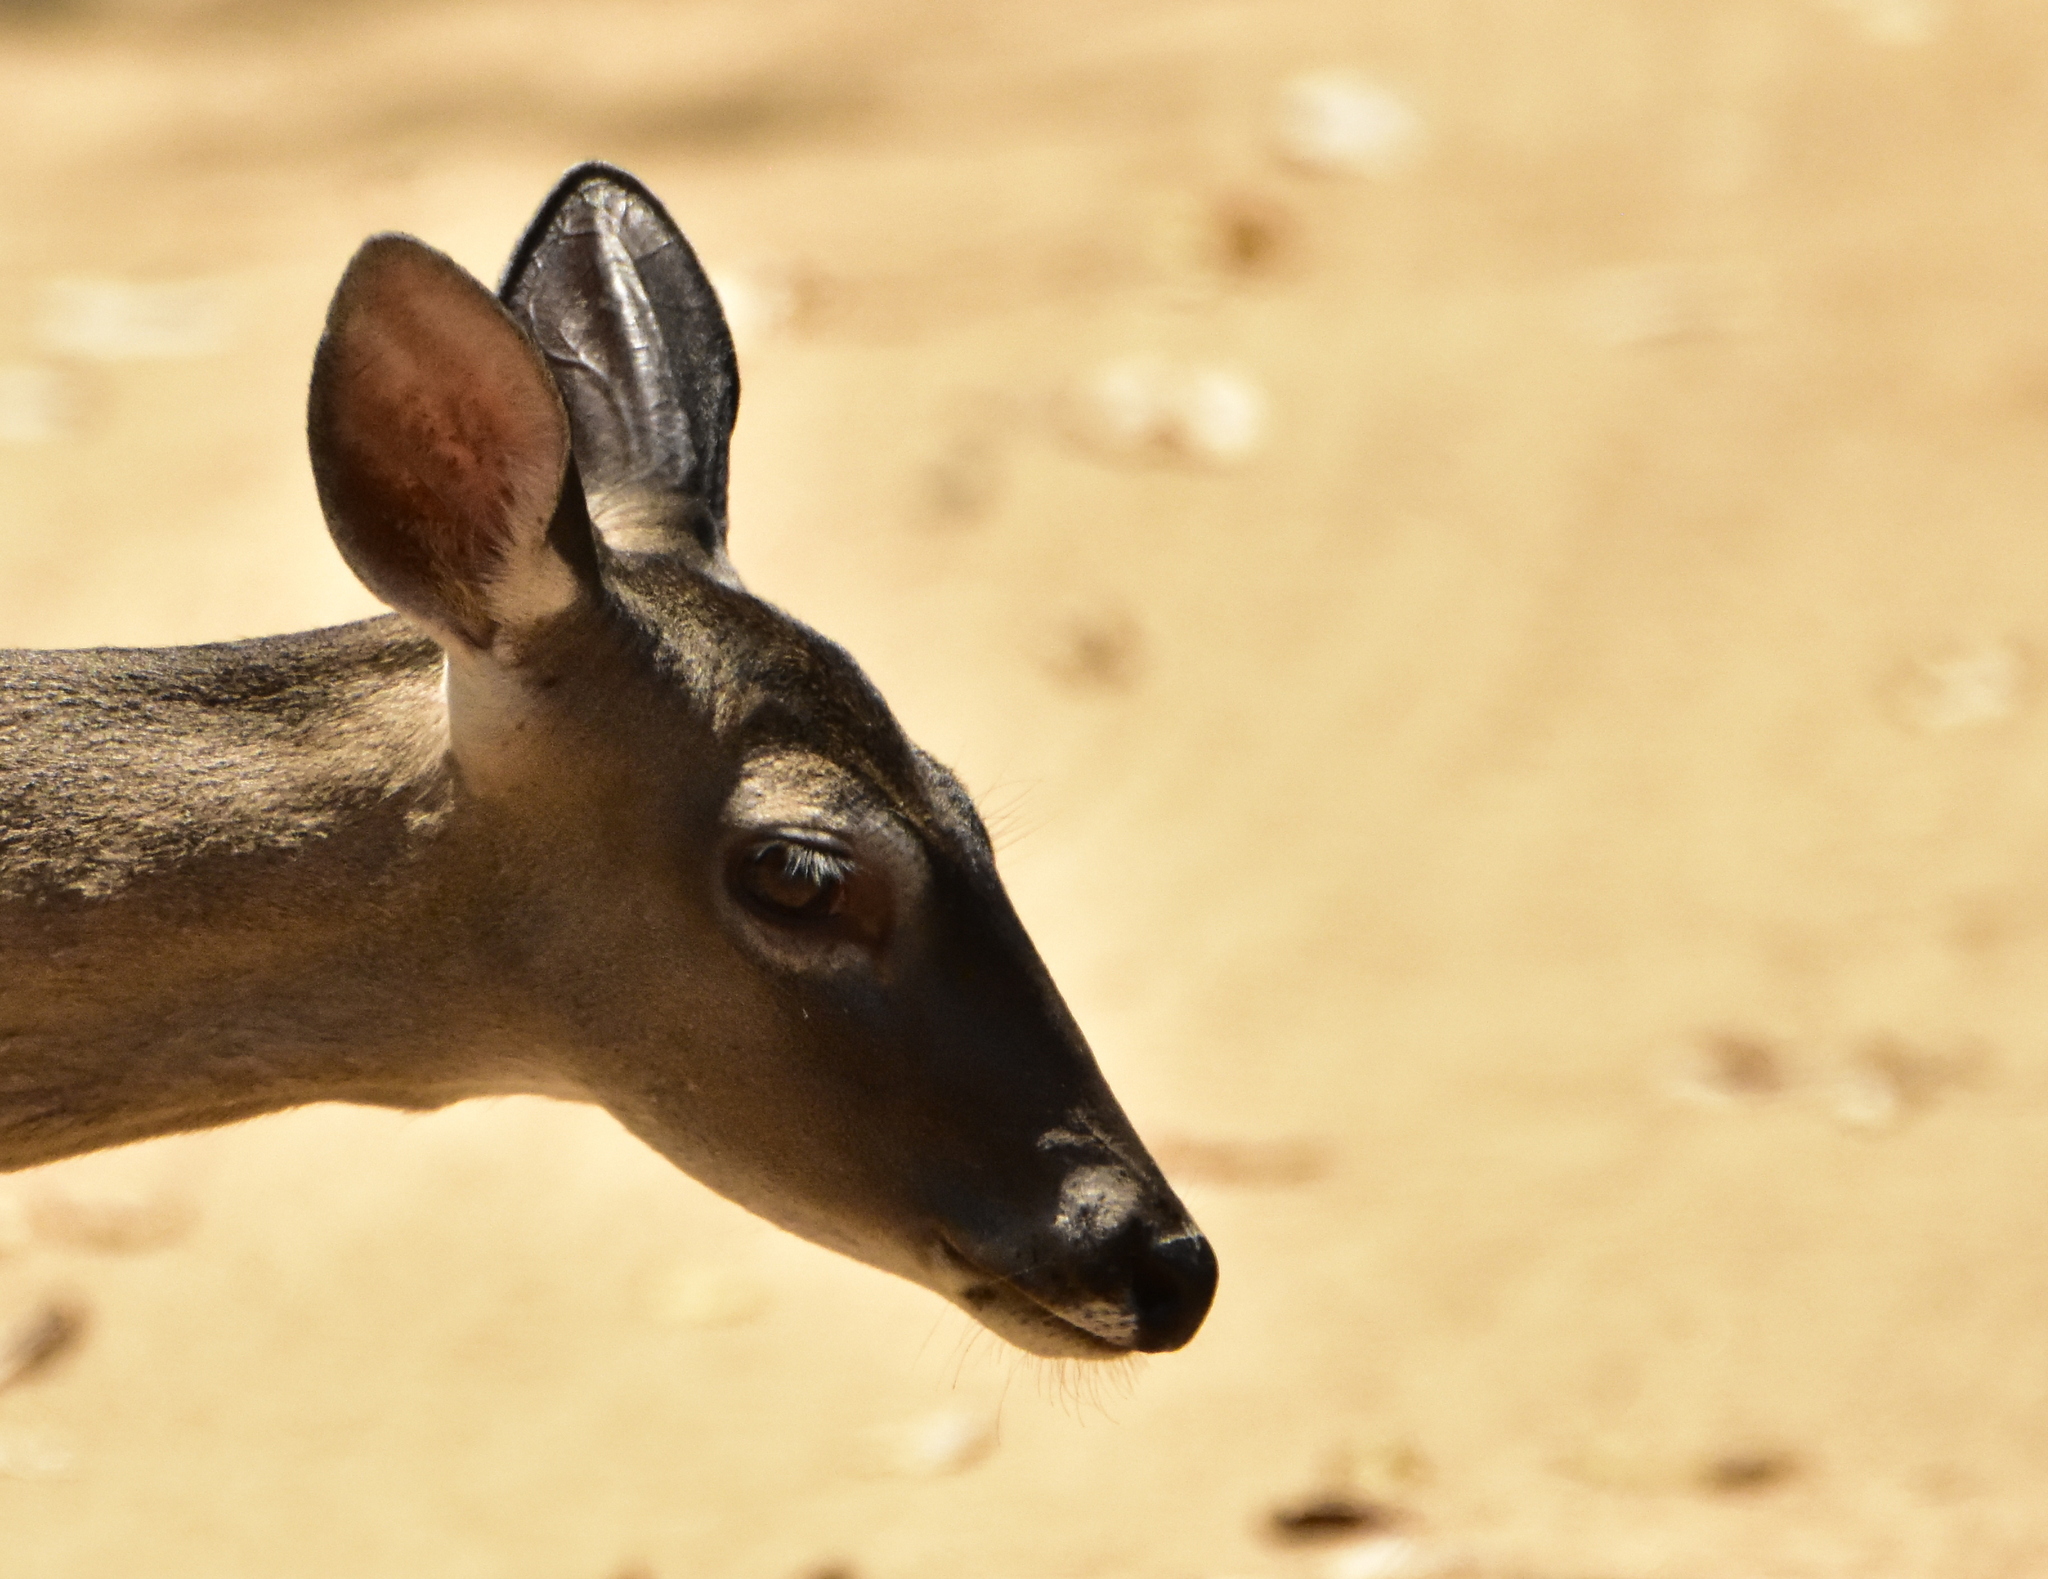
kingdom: Animalia
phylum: Chordata
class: Mammalia
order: Artiodactyla
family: Cervidae
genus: Odocoileus
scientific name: Odocoileus virginianus
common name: White-tailed deer
